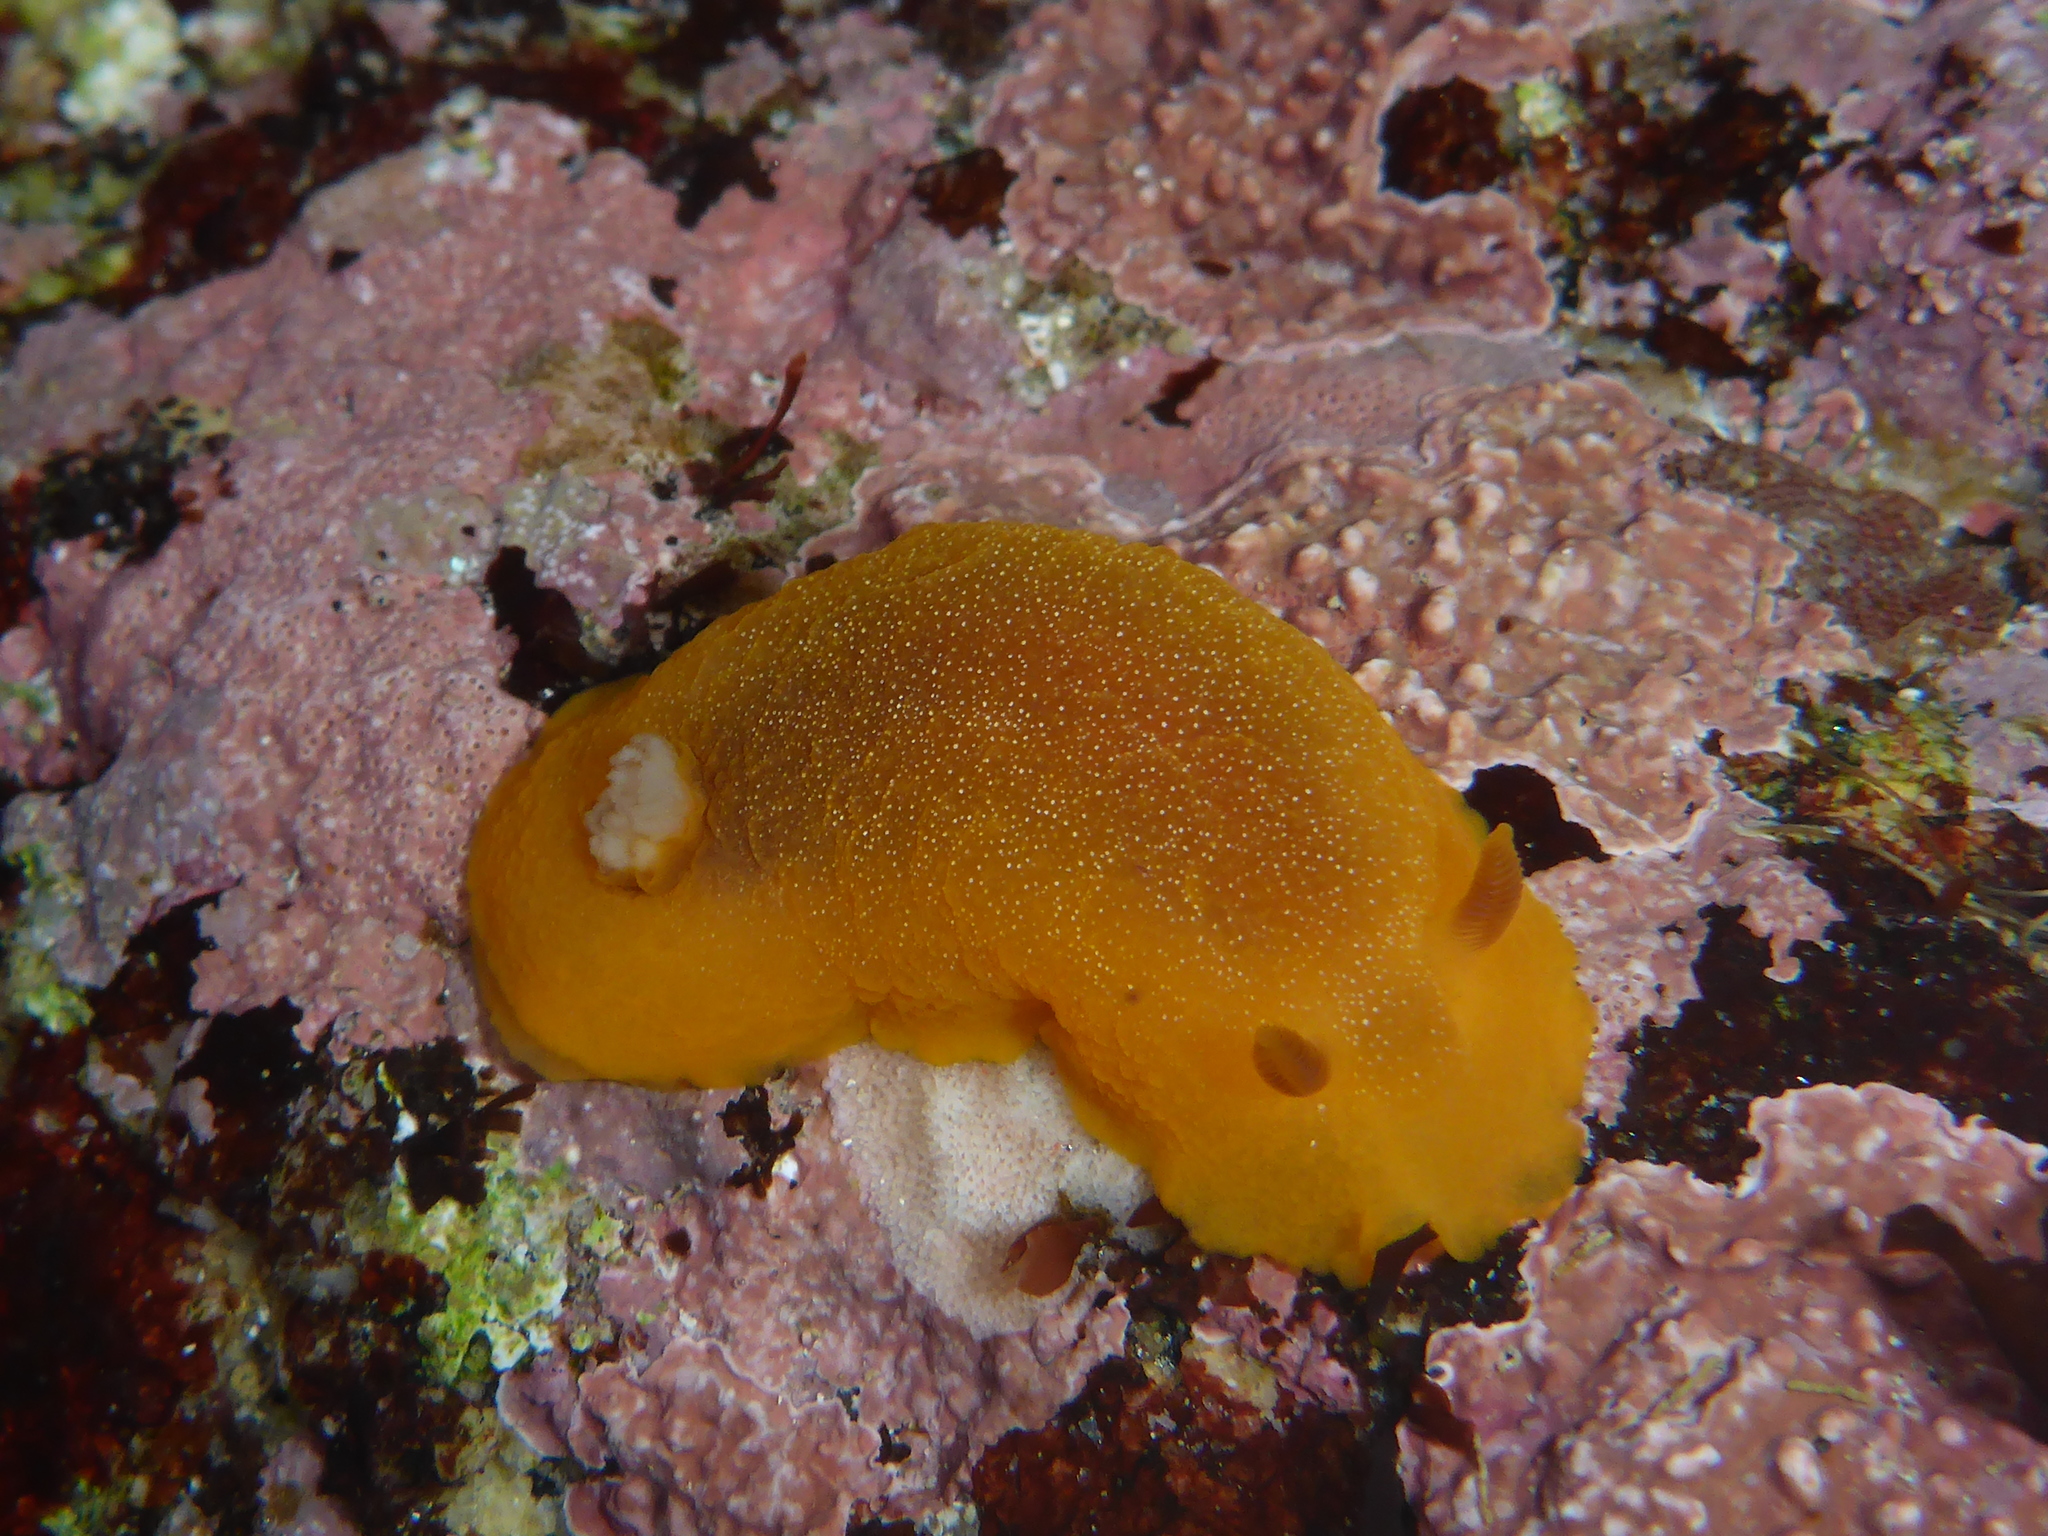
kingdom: Animalia
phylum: Mollusca
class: Gastropoda
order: Nudibranchia
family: Dendrodorididae
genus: Doriopsilla
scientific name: Doriopsilla albopunctata
